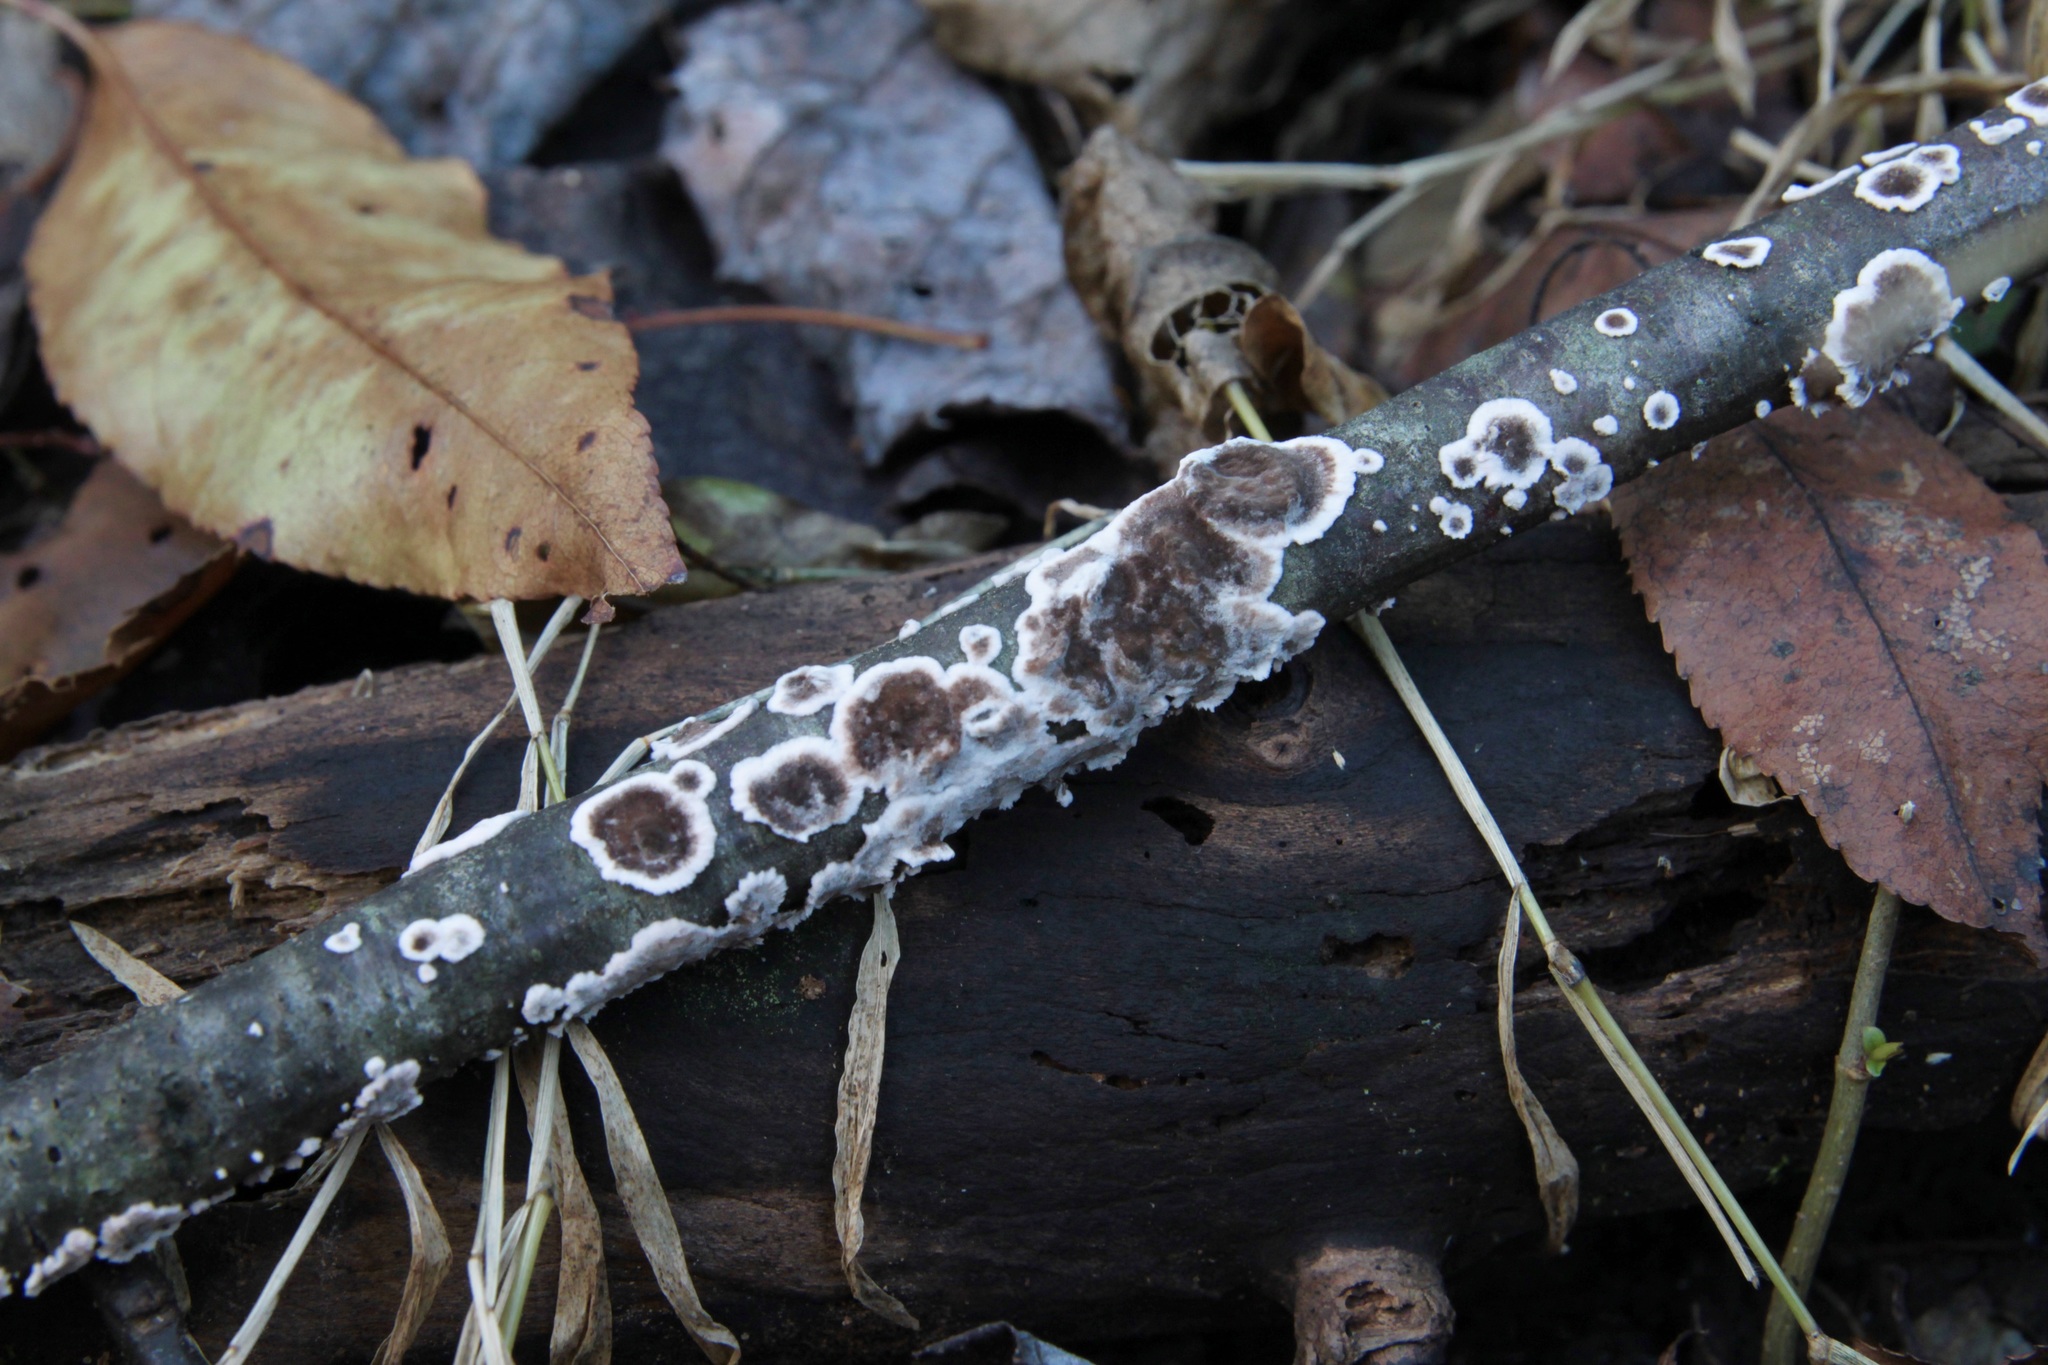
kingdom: Fungi
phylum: Basidiomycota
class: Agaricomycetes
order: Russulales
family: Peniophoraceae
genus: Peniophora
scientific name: Peniophora albobadia
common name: Giraffe spots
